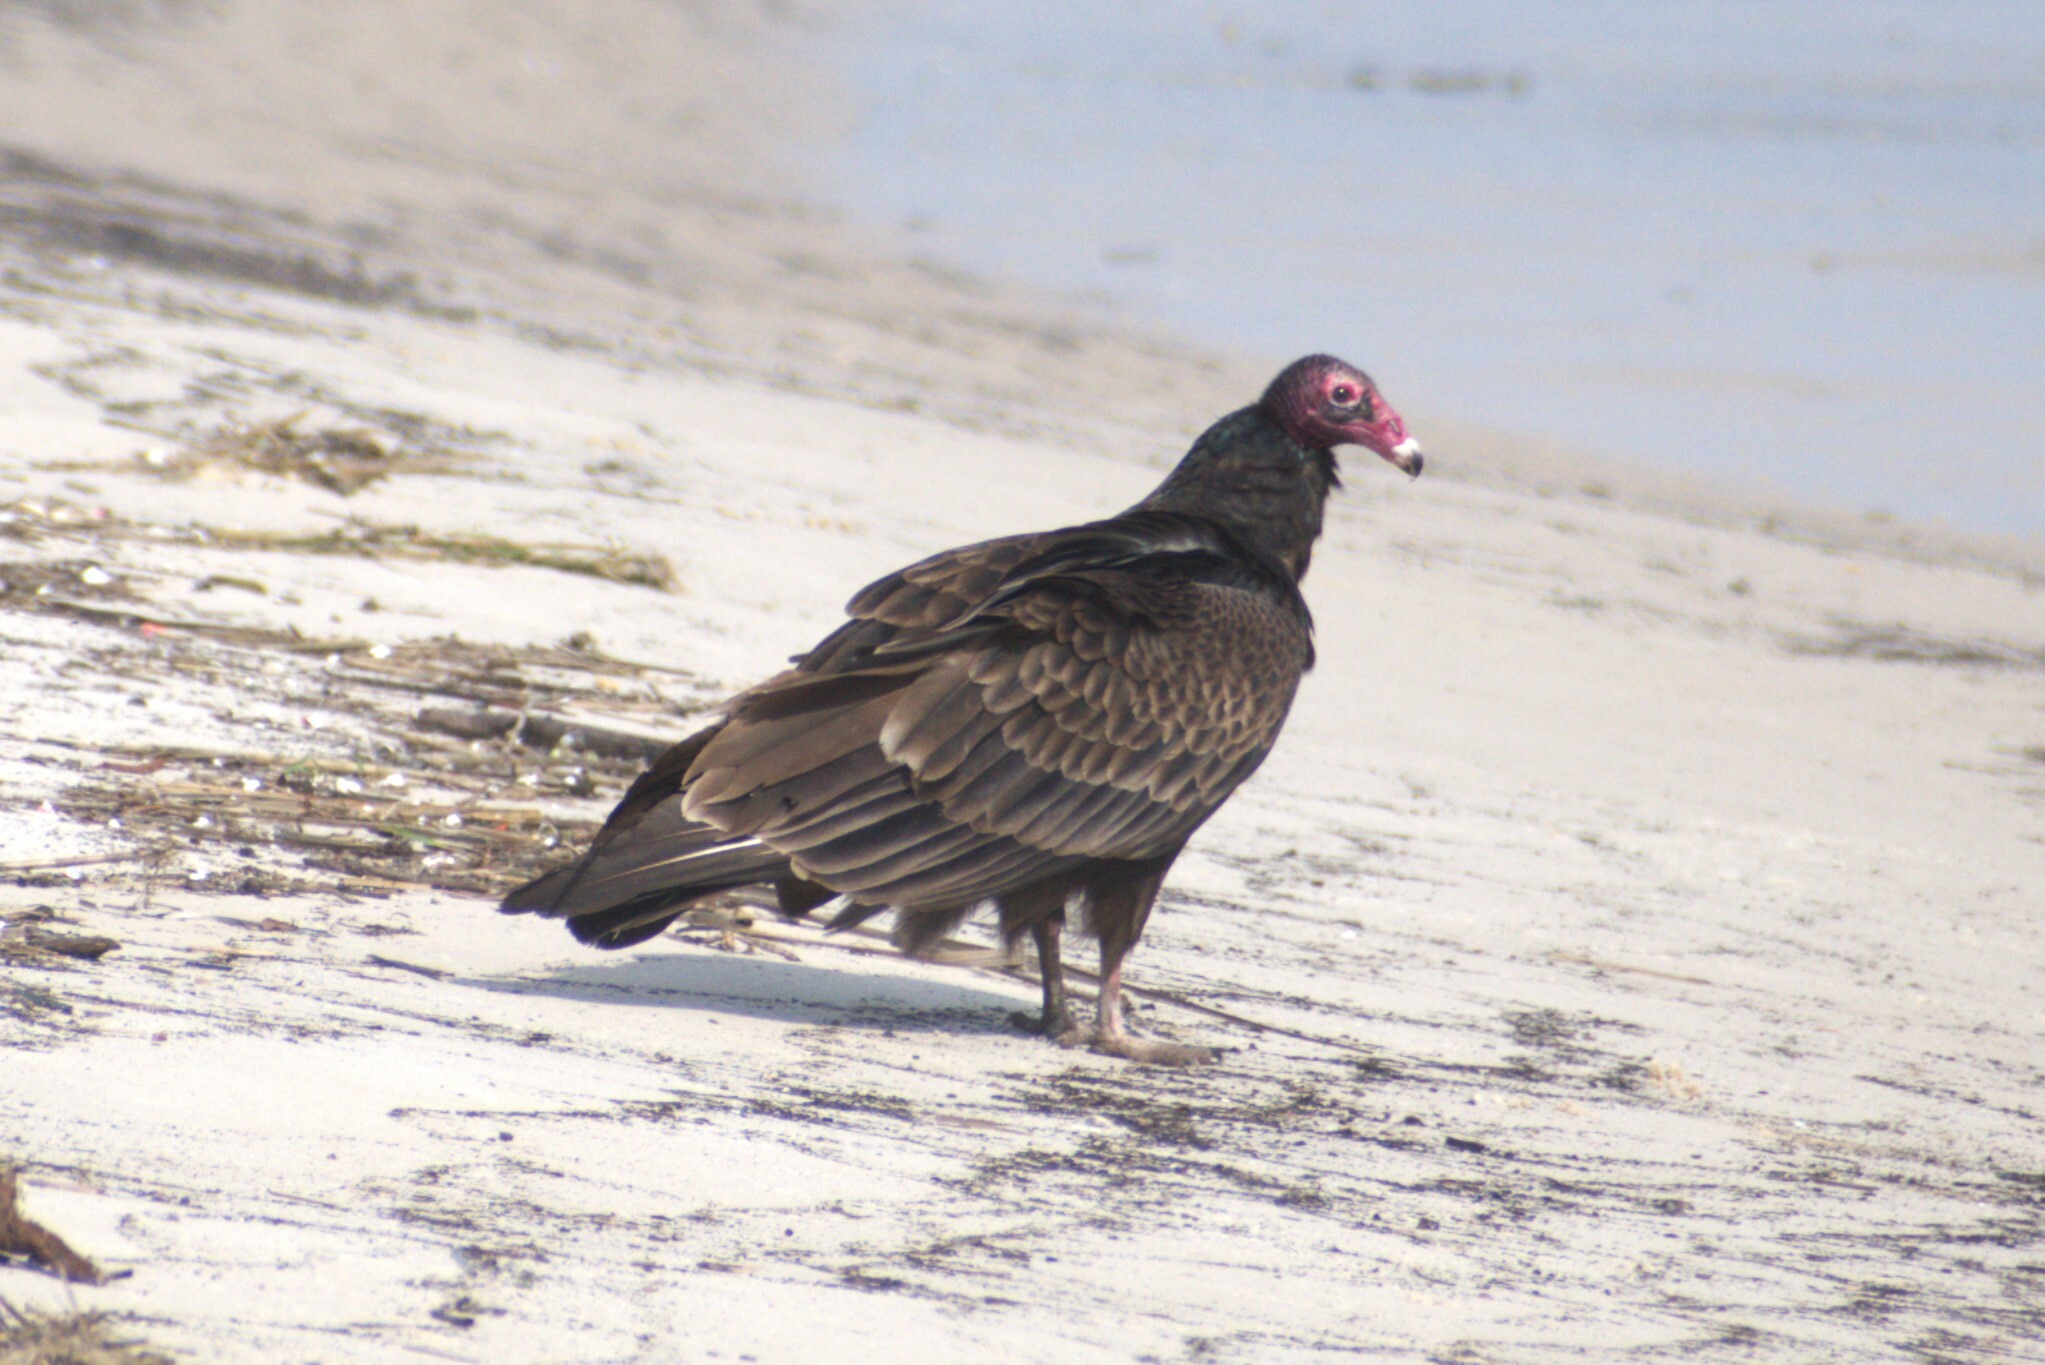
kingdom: Animalia
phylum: Chordata
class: Aves
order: Accipitriformes
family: Cathartidae
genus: Cathartes
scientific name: Cathartes aura
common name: Turkey vulture
